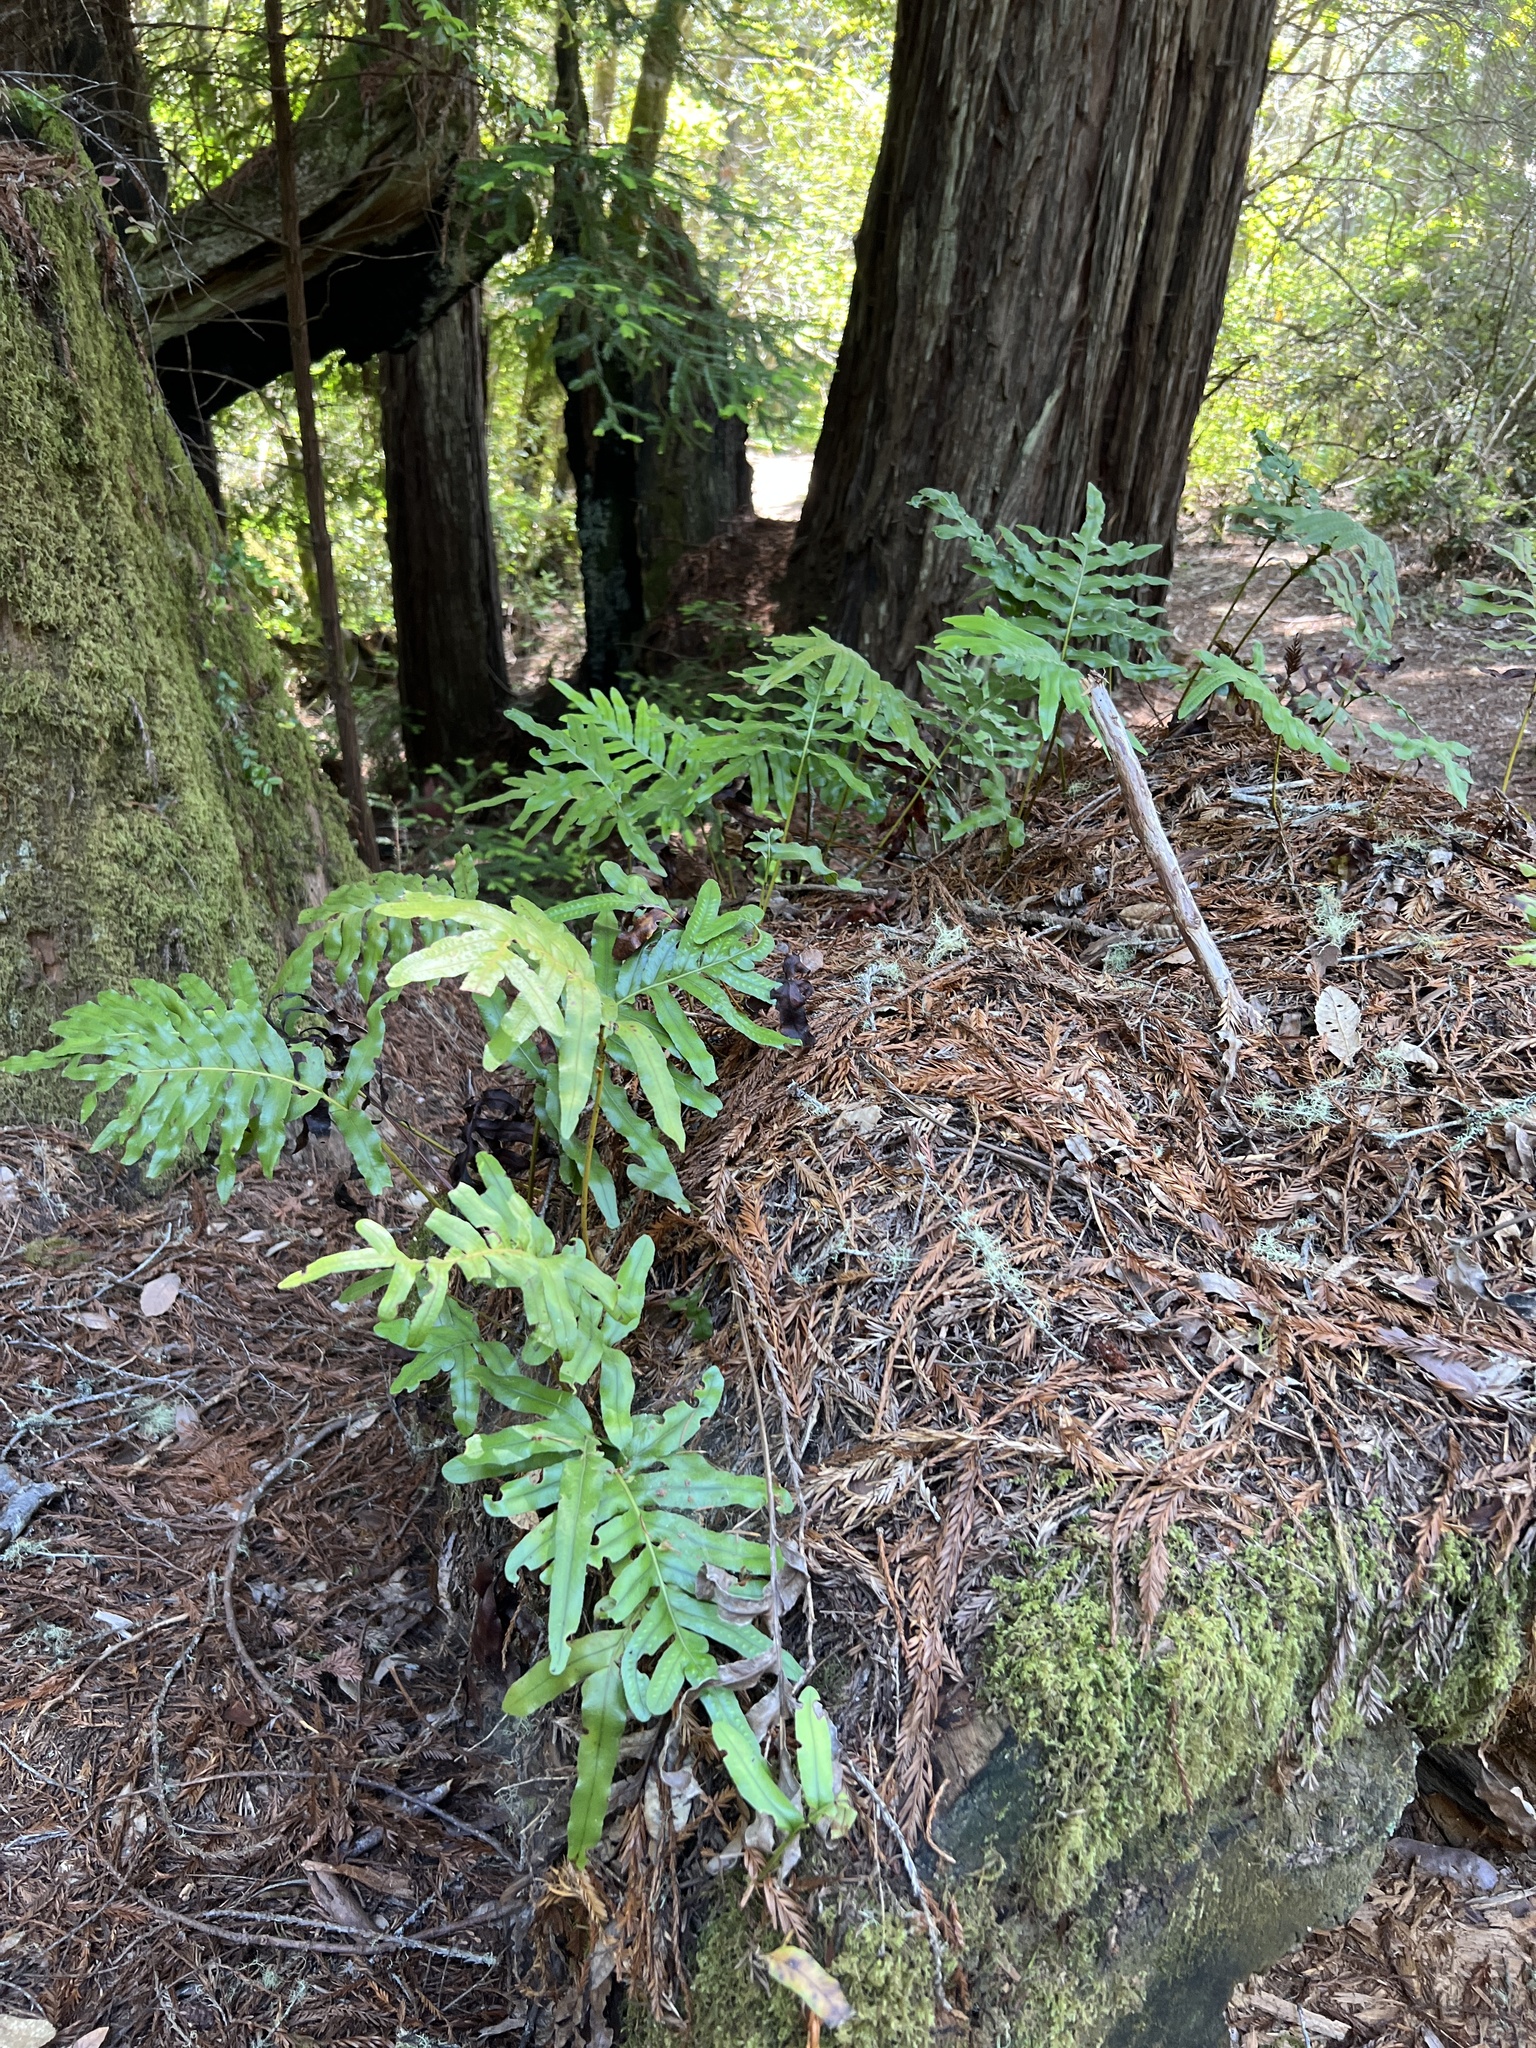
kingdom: Plantae
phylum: Tracheophyta
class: Polypodiopsida
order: Polypodiales
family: Polypodiaceae
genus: Polypodium
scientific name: Polypodium scouleri
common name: Scouler's polypody
